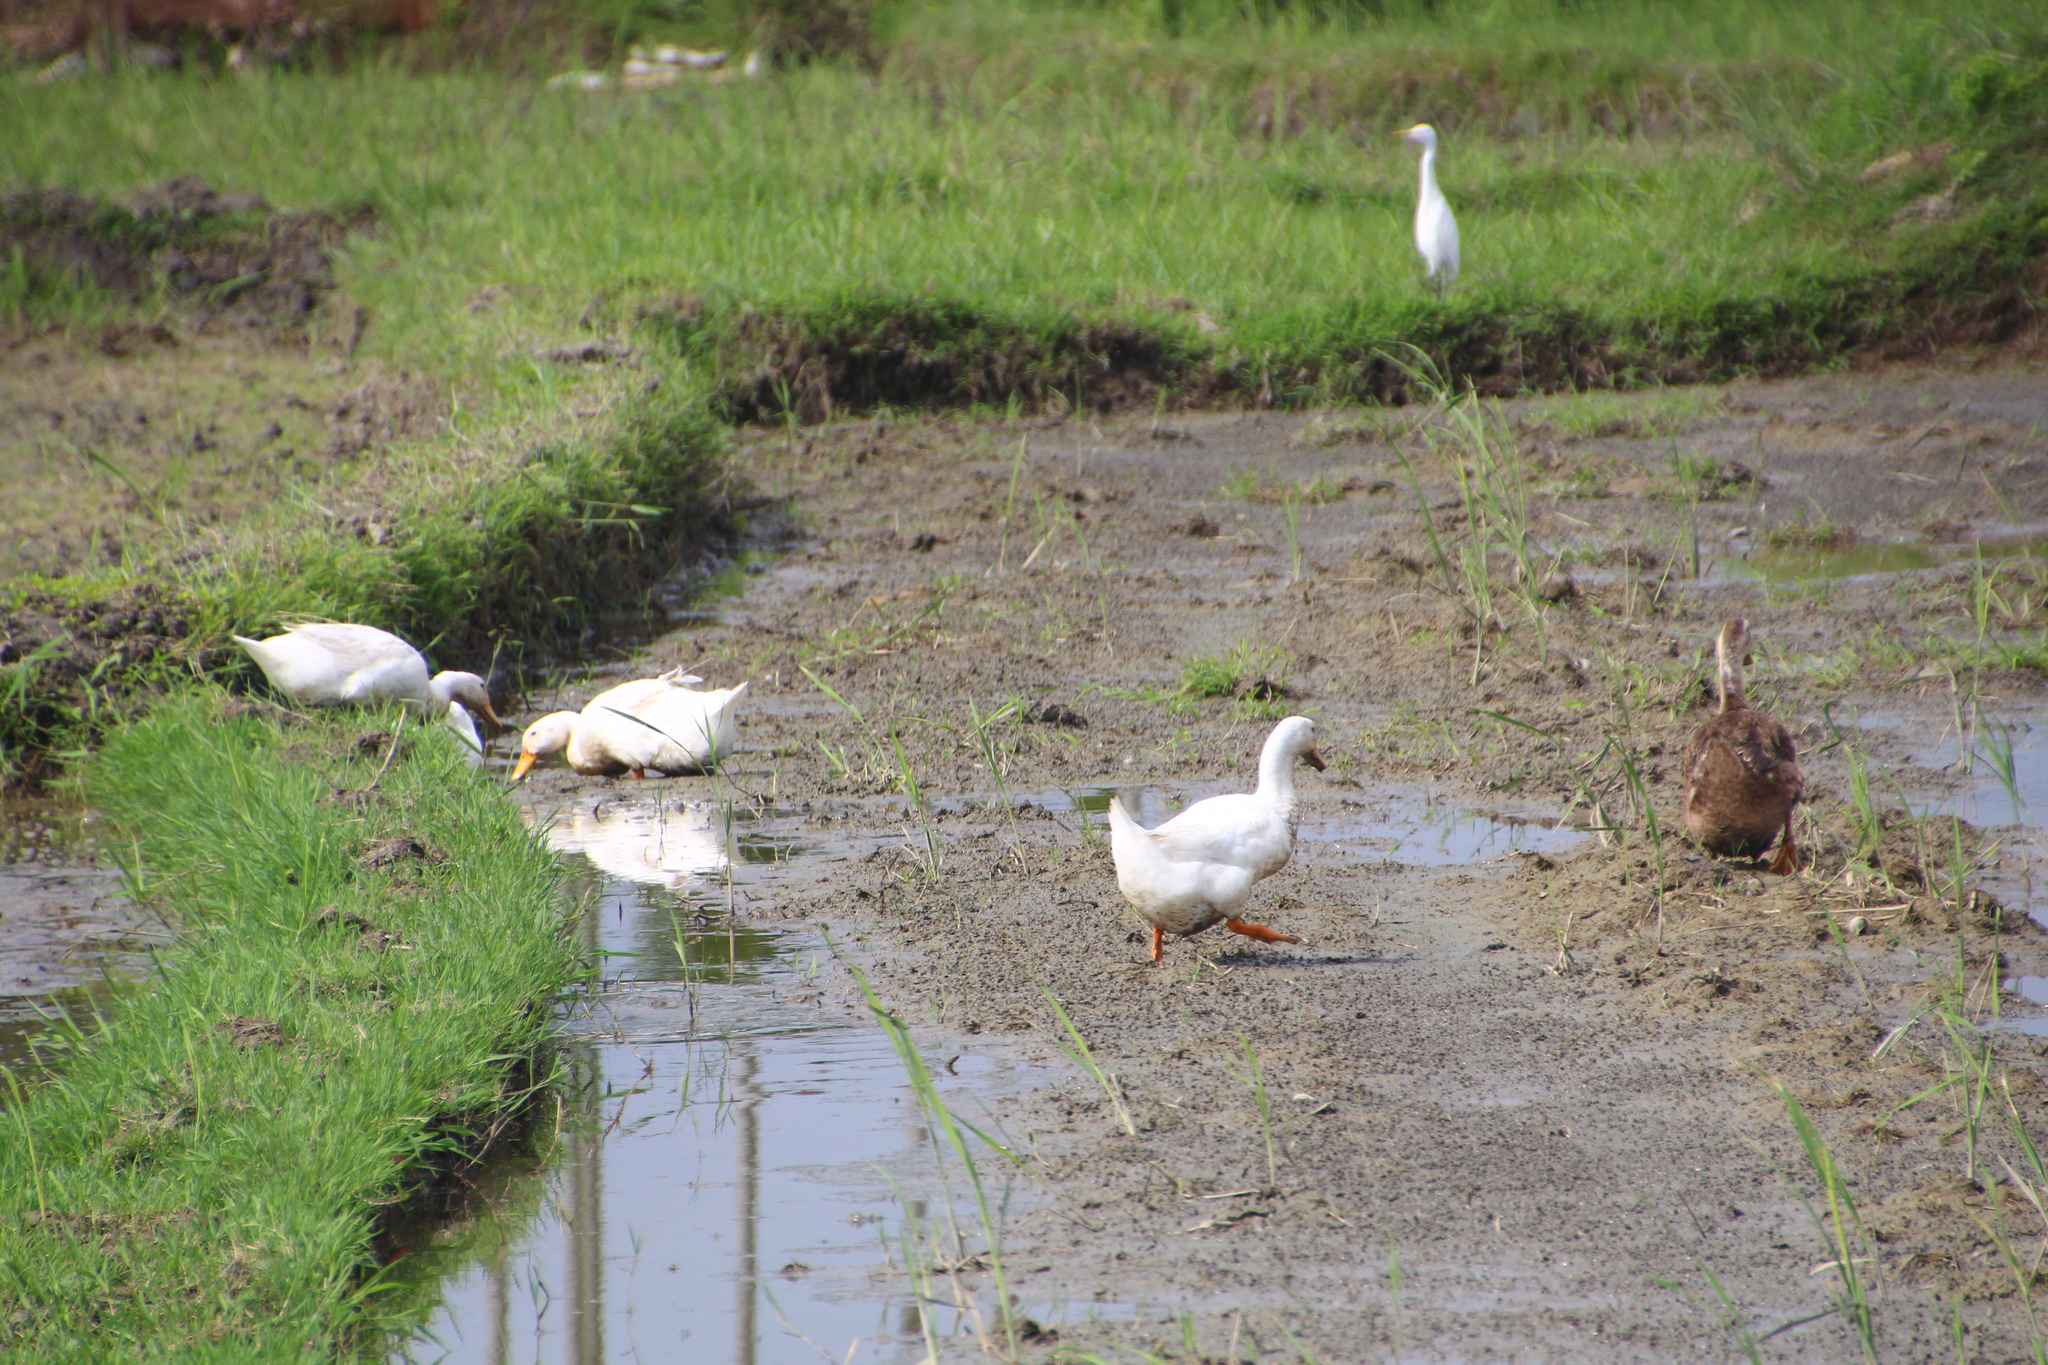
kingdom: Animalia
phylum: Chordata
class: Aves
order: Anseriformes
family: Anatidae
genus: Anas
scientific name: Anas platyrhynchos
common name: Mallard
